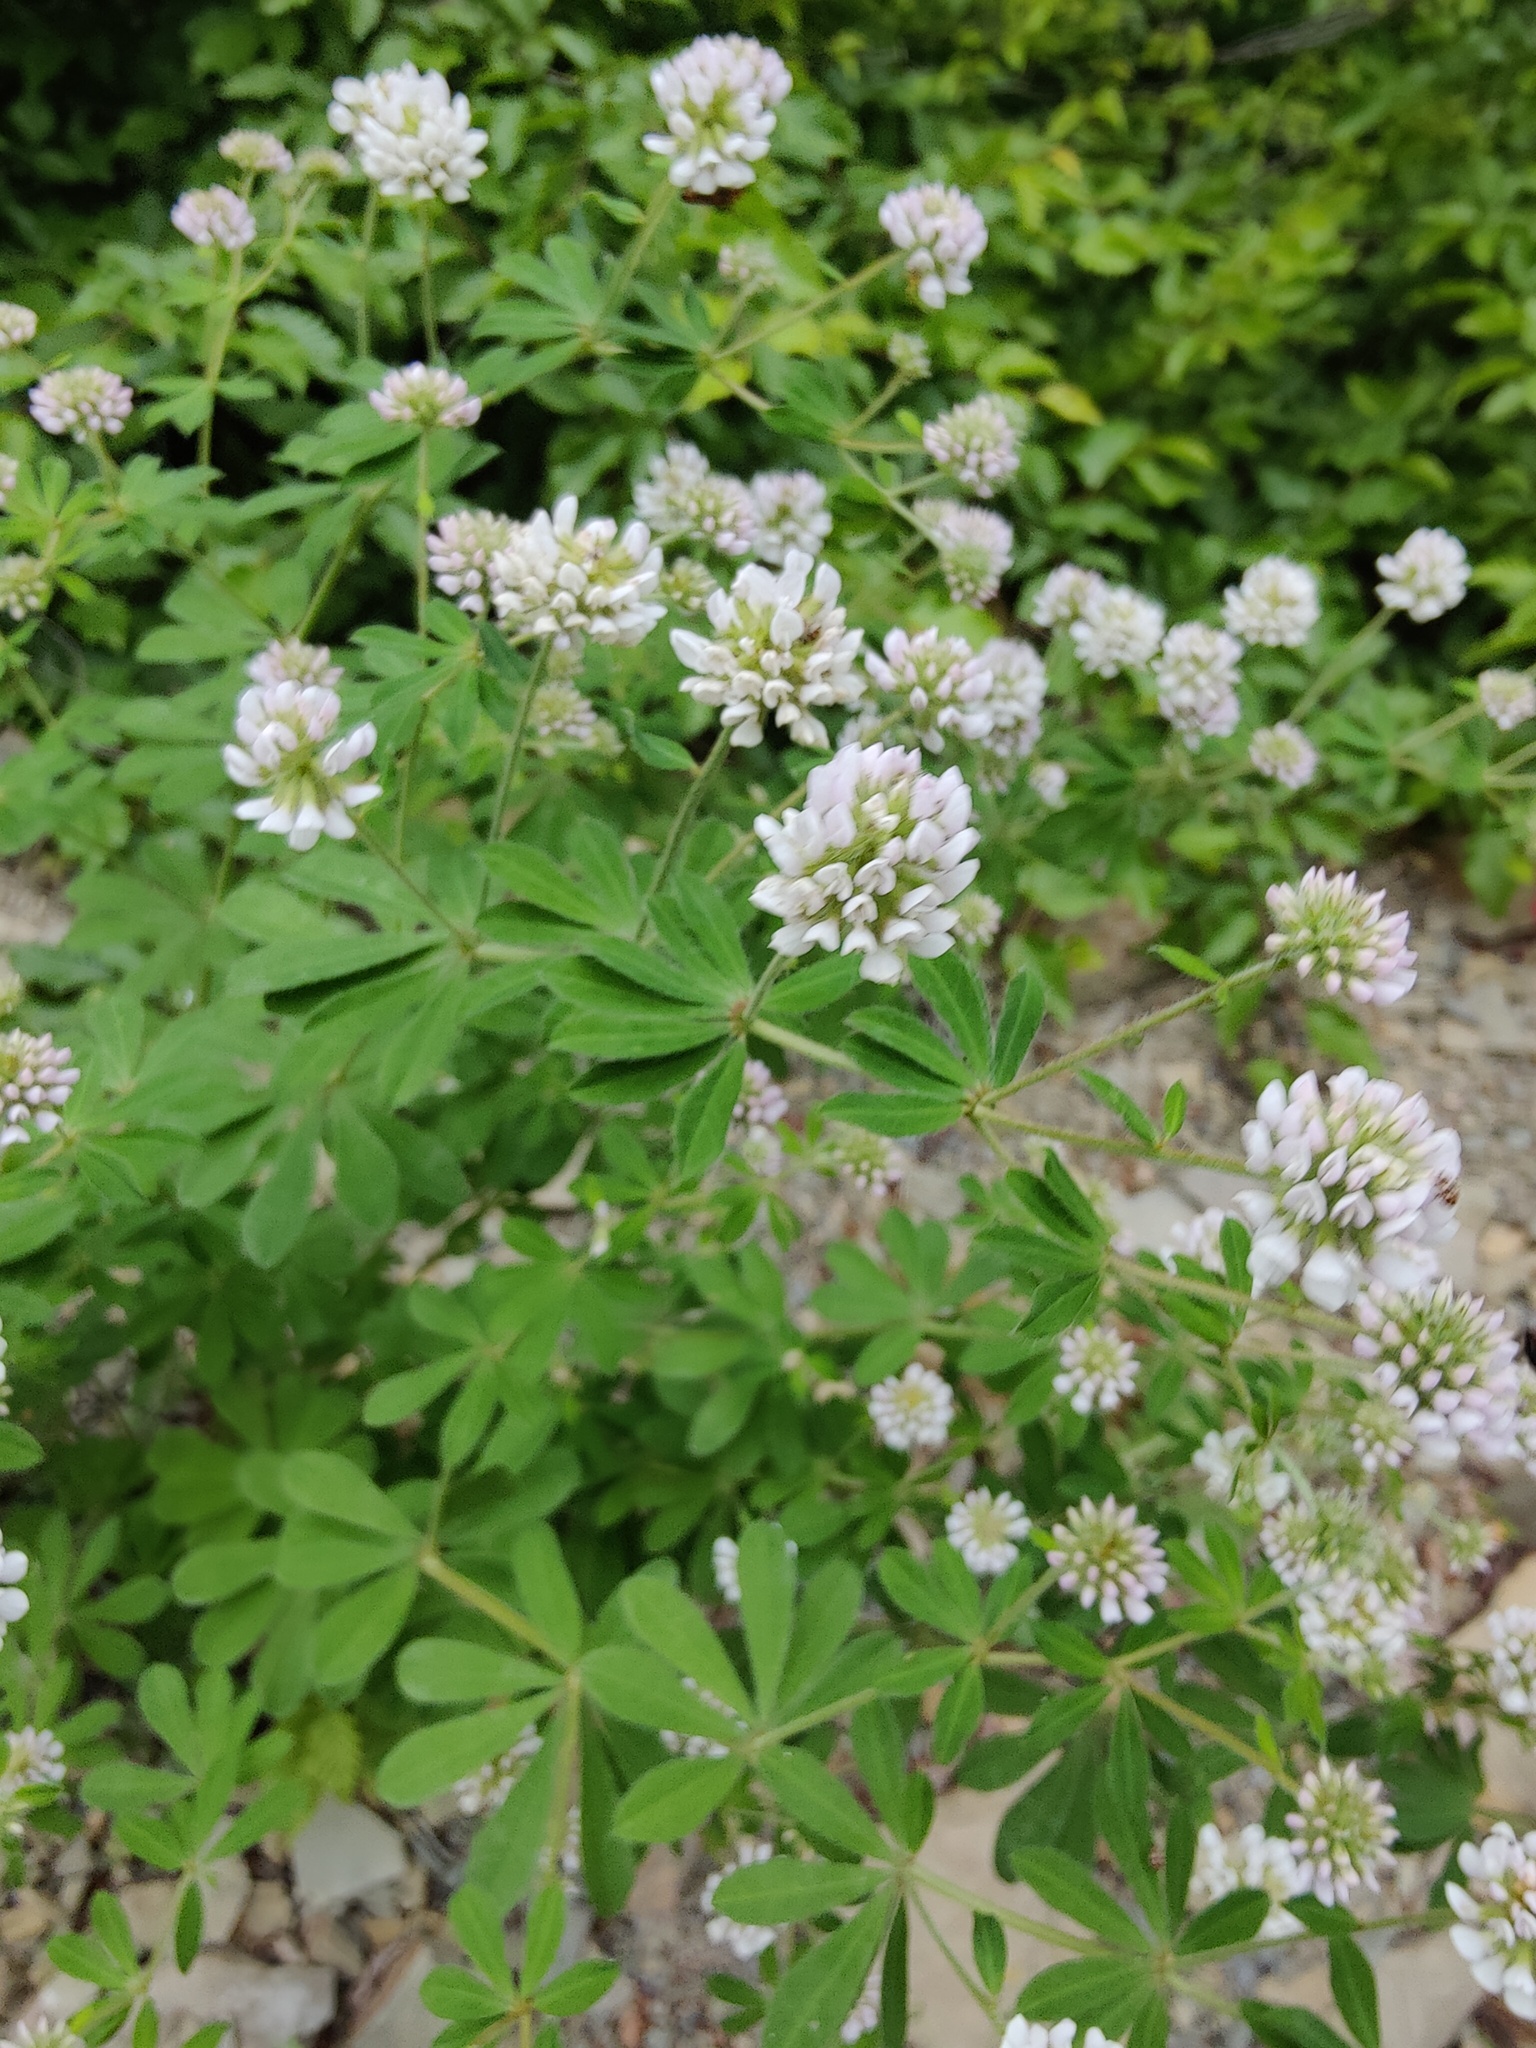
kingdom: Plantae
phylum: Tracheophyta
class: Magnoliopsida
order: Fabales
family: Fabaceae
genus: Lotus
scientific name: Lotus herbaceus
